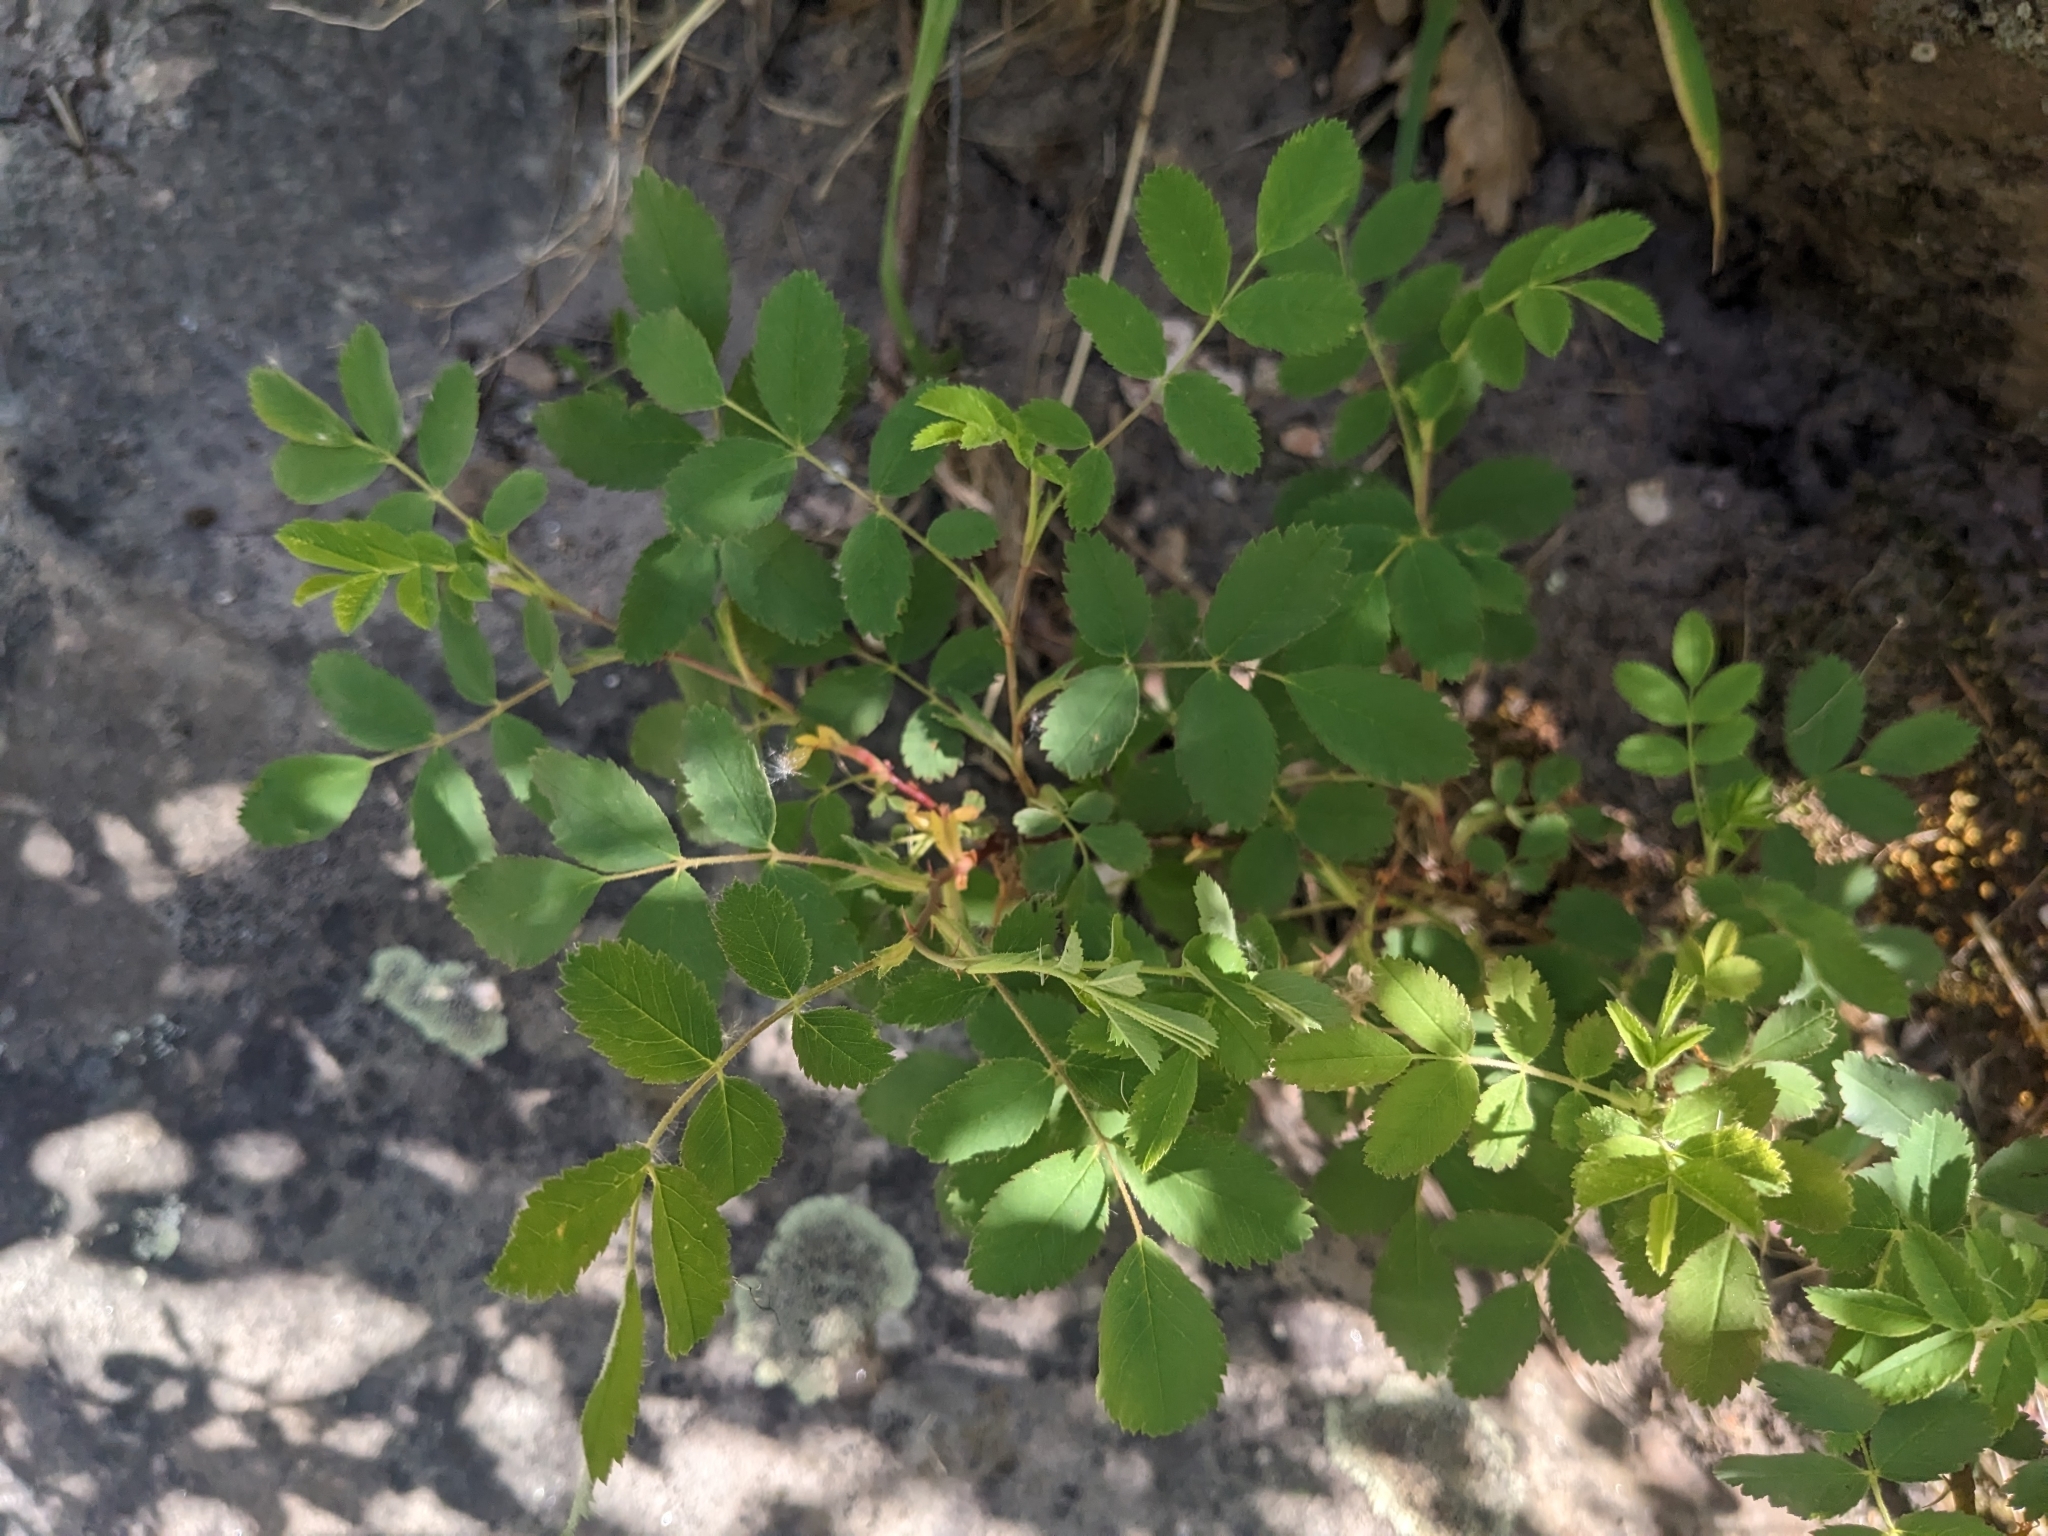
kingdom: Plantae
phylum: Tracheophyta
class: Magnoliopsida
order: Rosales
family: Rosaceae
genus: Rosa
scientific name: Rosa woodsii
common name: Woods's rose
